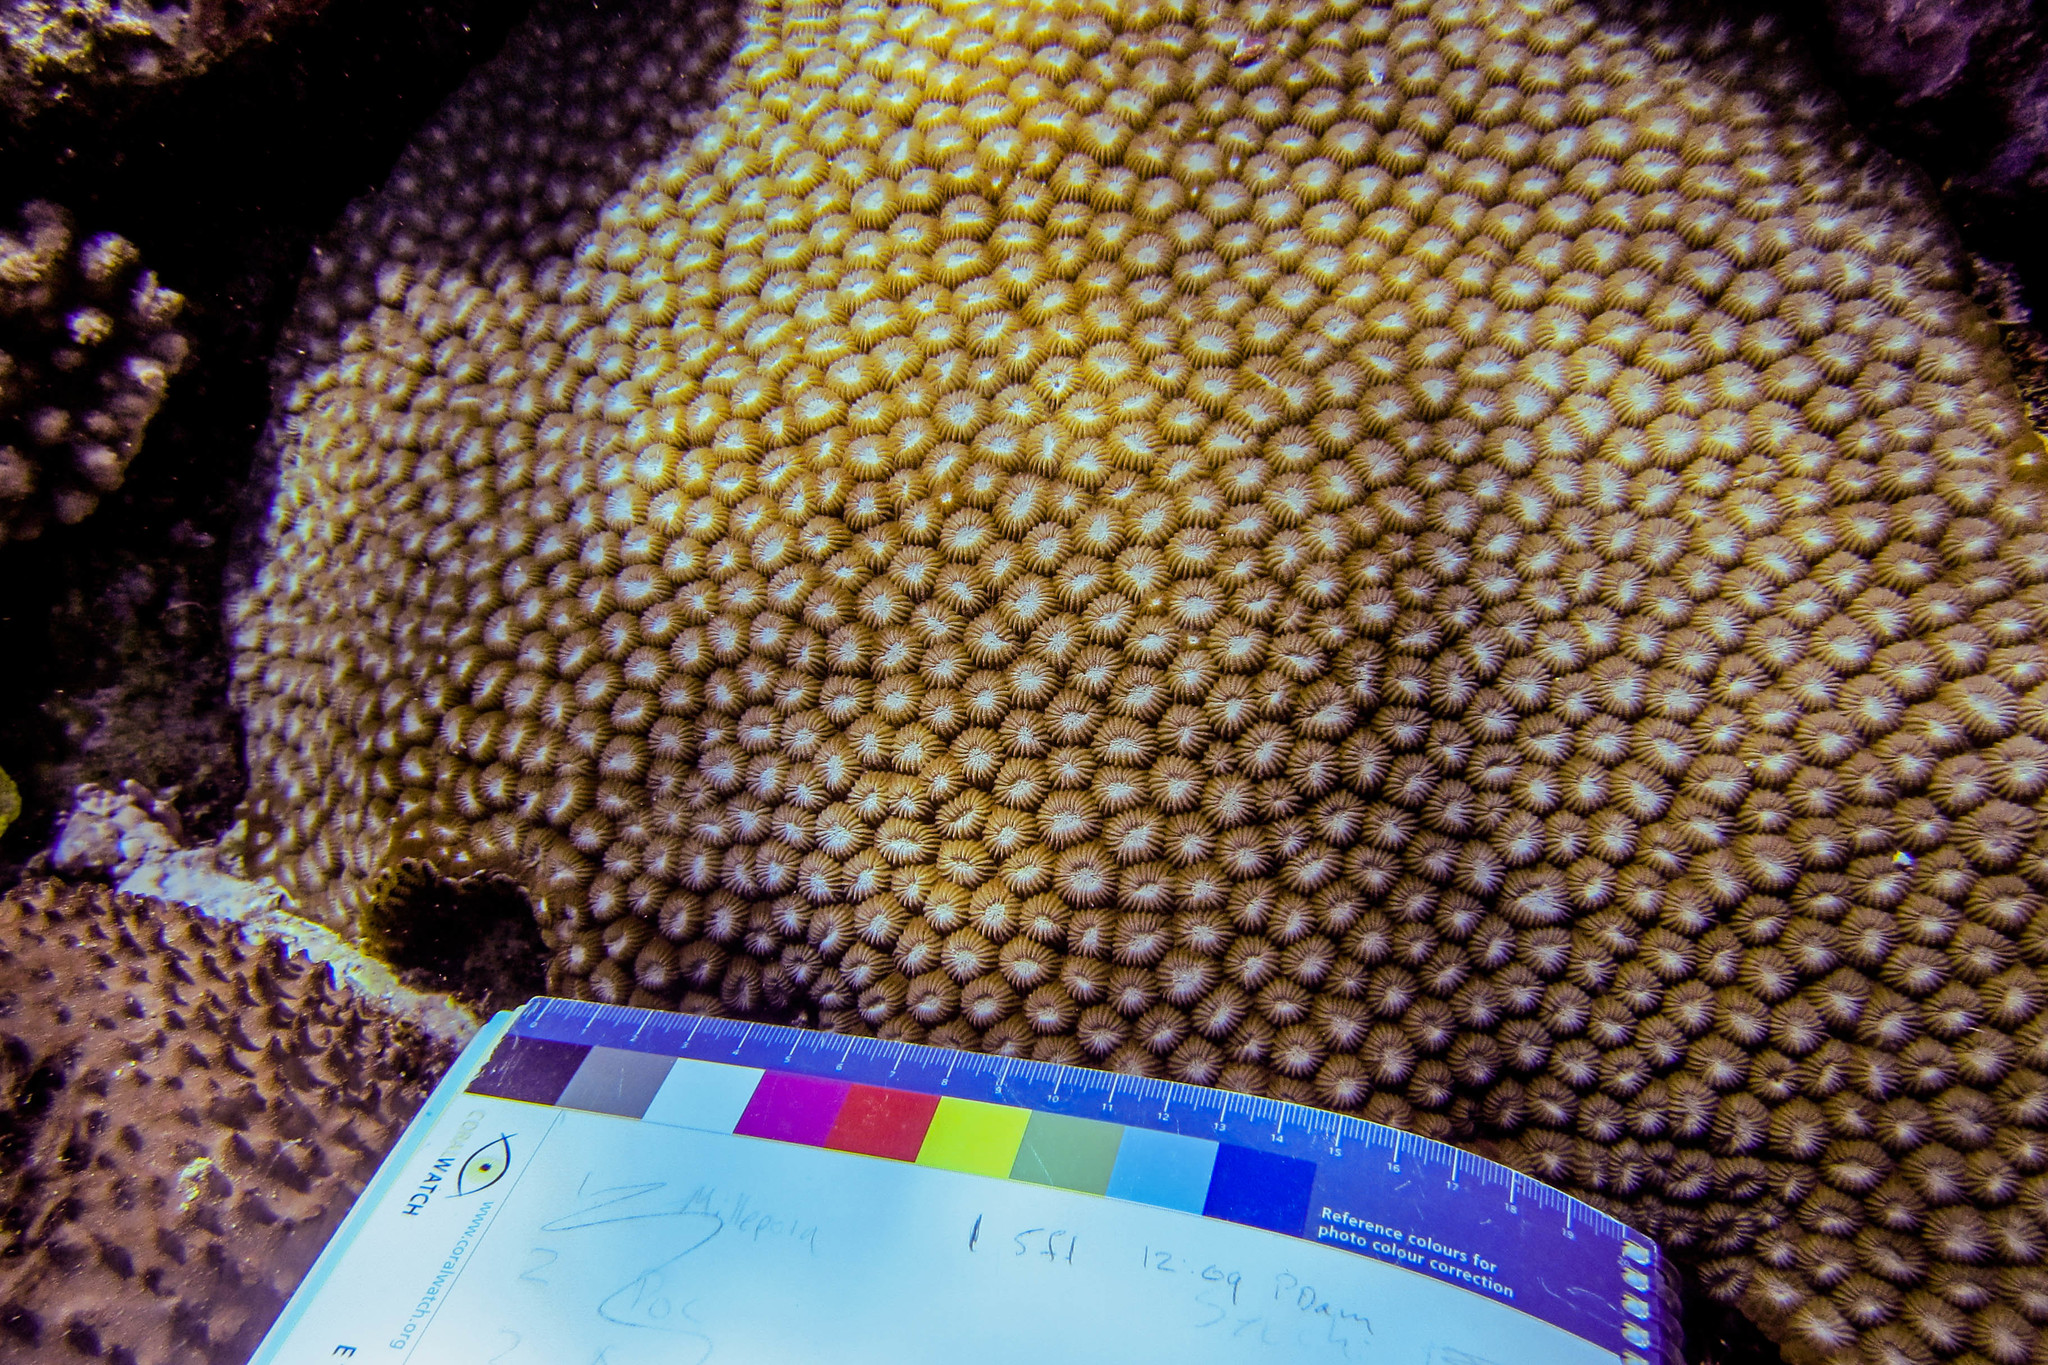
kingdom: Animalia
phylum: Cnidaria
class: Anthozoa
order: Scleractinia
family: Diploastraeidae
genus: Diploastrea
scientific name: Diploastrea heliopora
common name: Double-star coral
